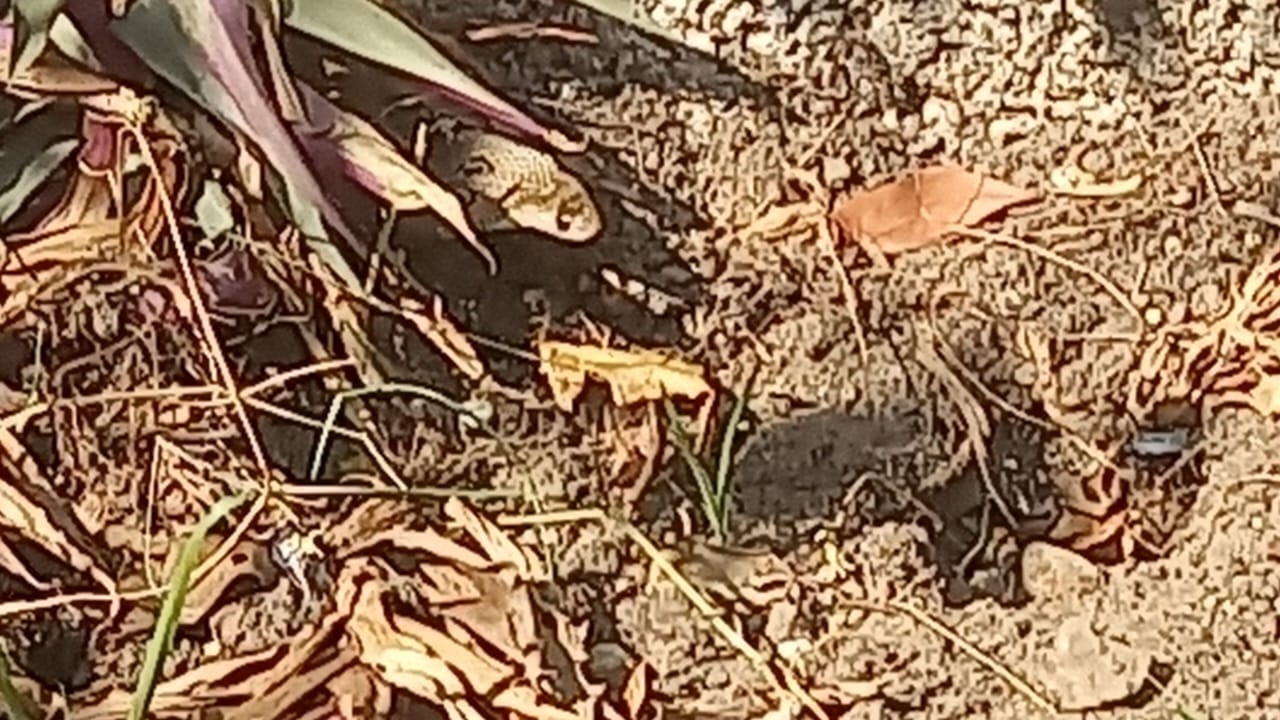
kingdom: Animalia
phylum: Chordata
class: Squamata
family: Elapidae
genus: Naja
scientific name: Naja naja
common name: Indian cobra
